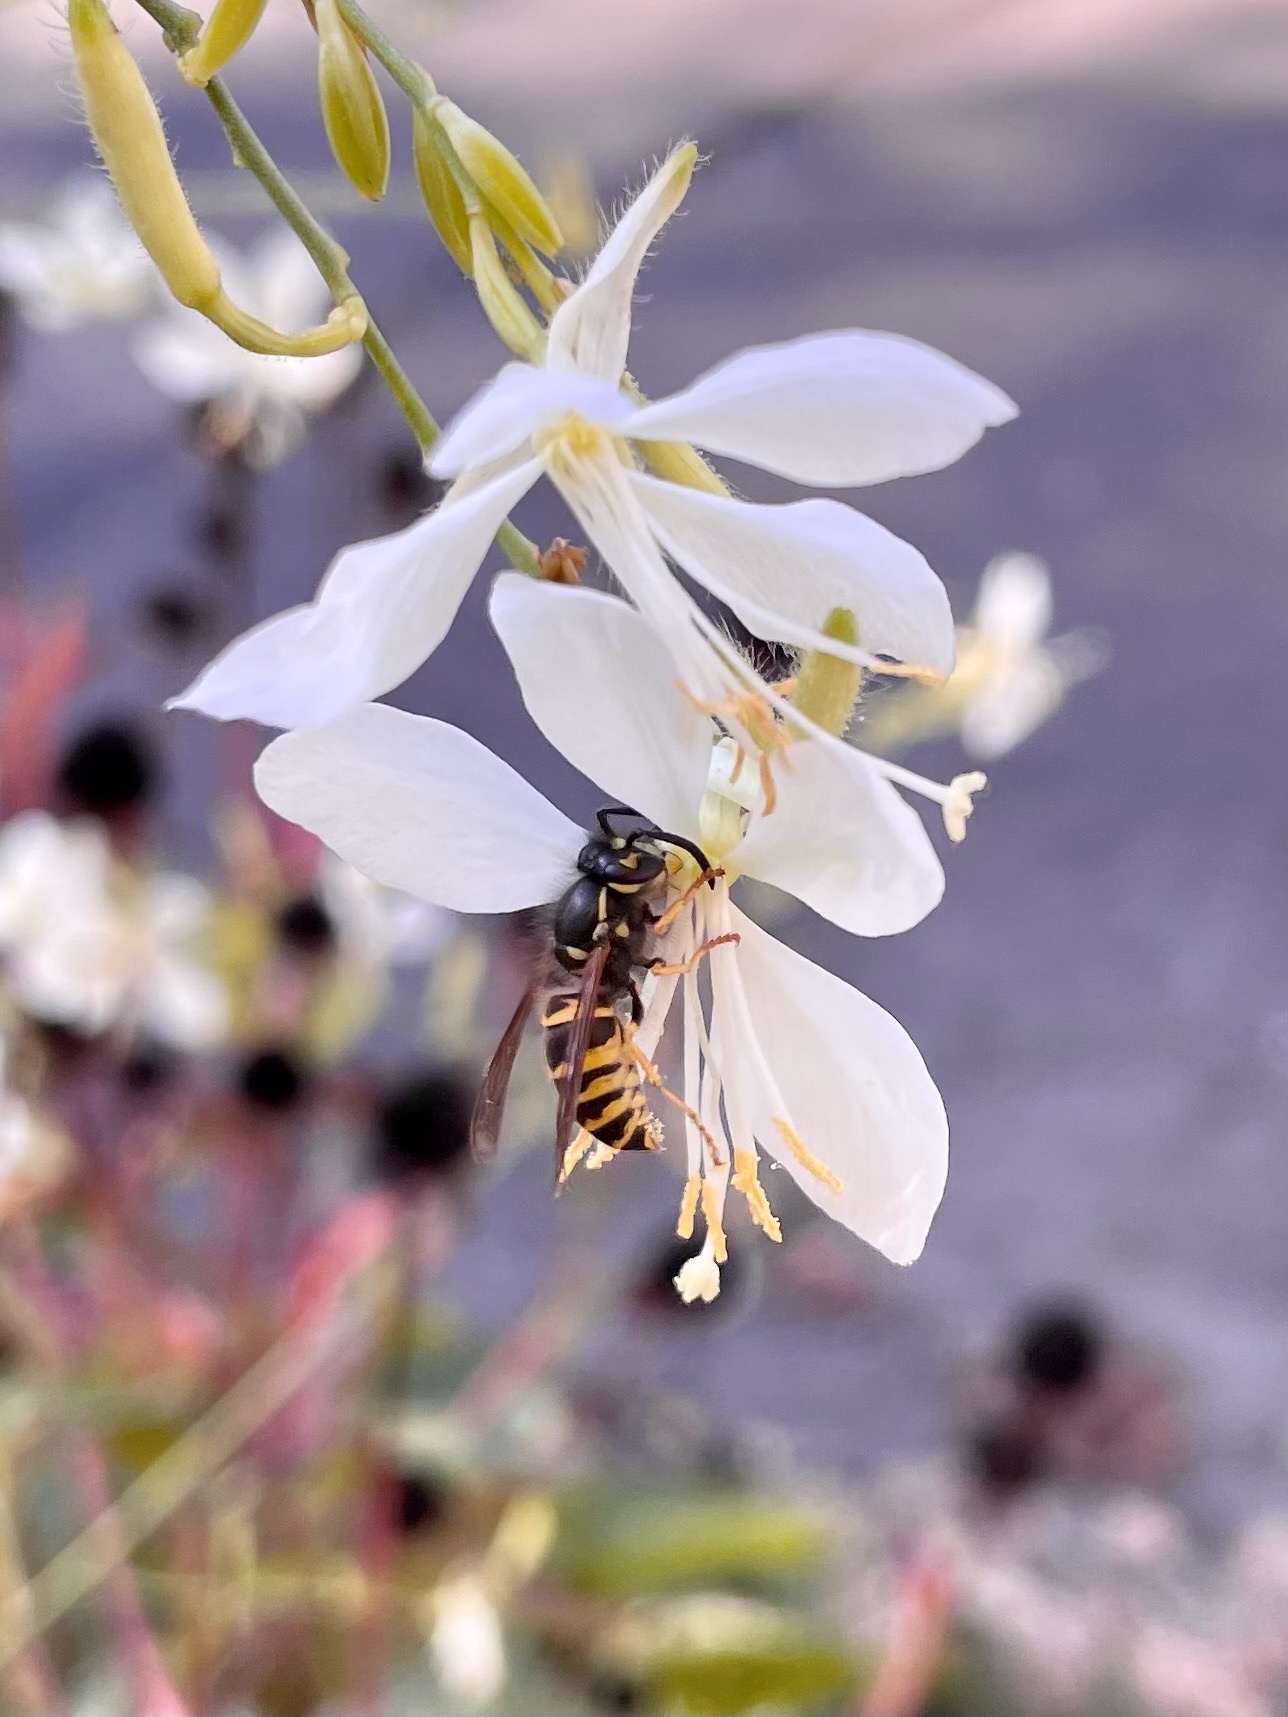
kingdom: Animalia
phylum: Arthropoda
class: Insecta
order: Hymenoptera
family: Vespidae
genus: Vespula
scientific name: Vespula alascensis
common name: Alaska yellowjacket
